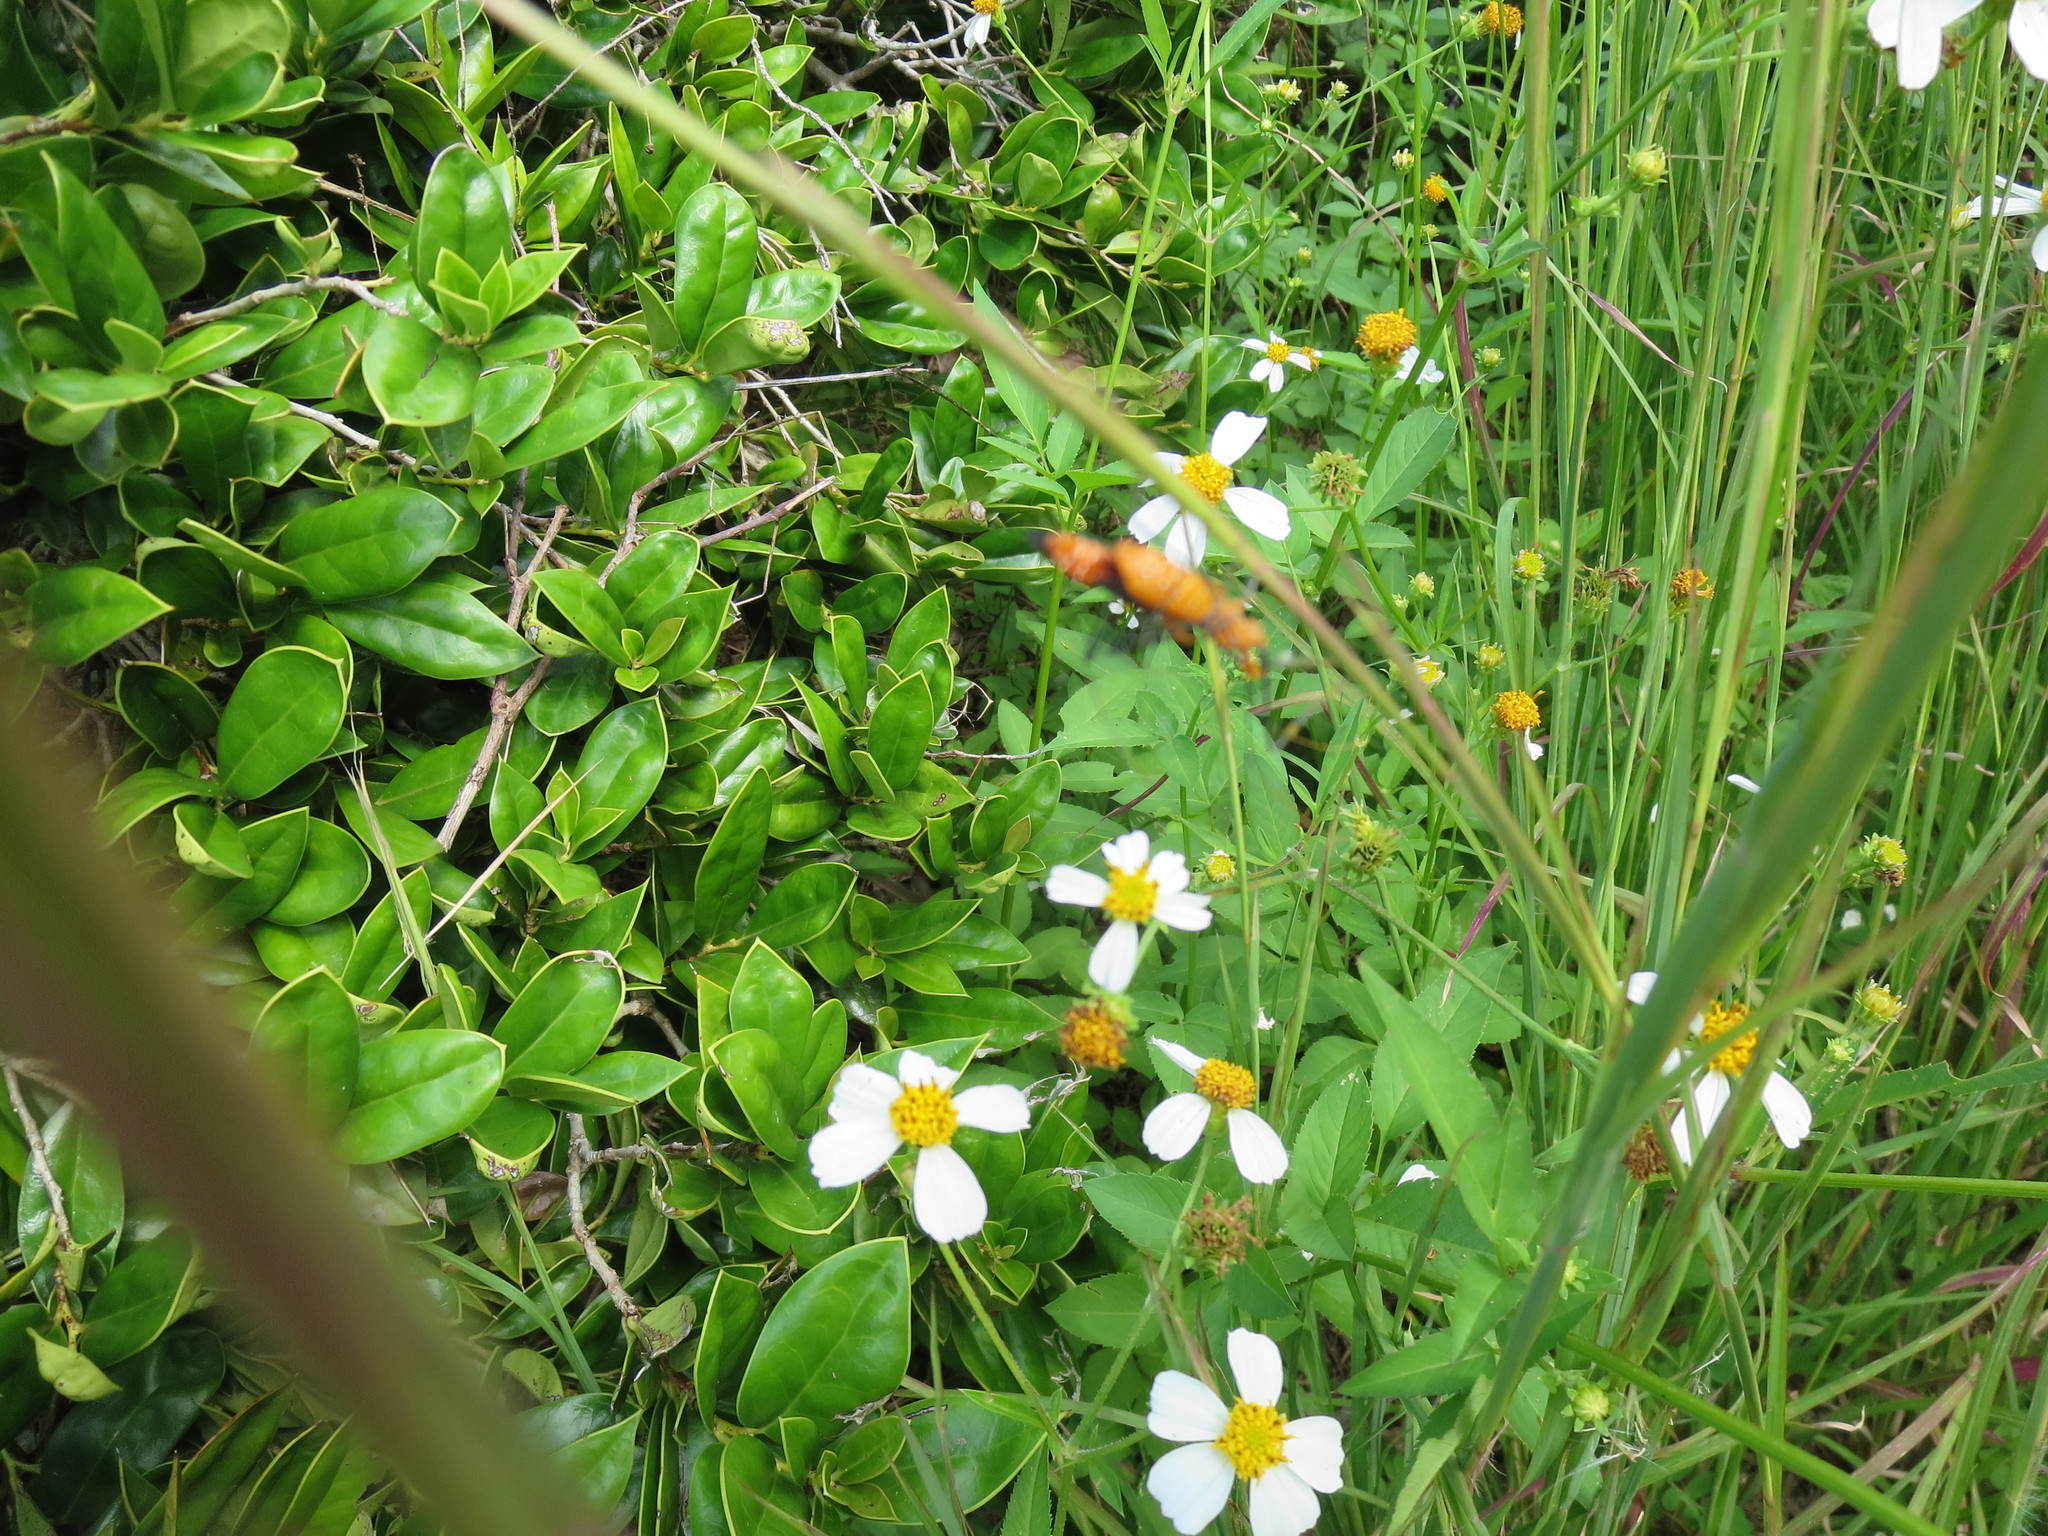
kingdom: Animalia
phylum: Arthropoda
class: Insecta
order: Hemiptera
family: Reduviidae
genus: Zelus
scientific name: Zelus longipes
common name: Milkweed assassin bug
